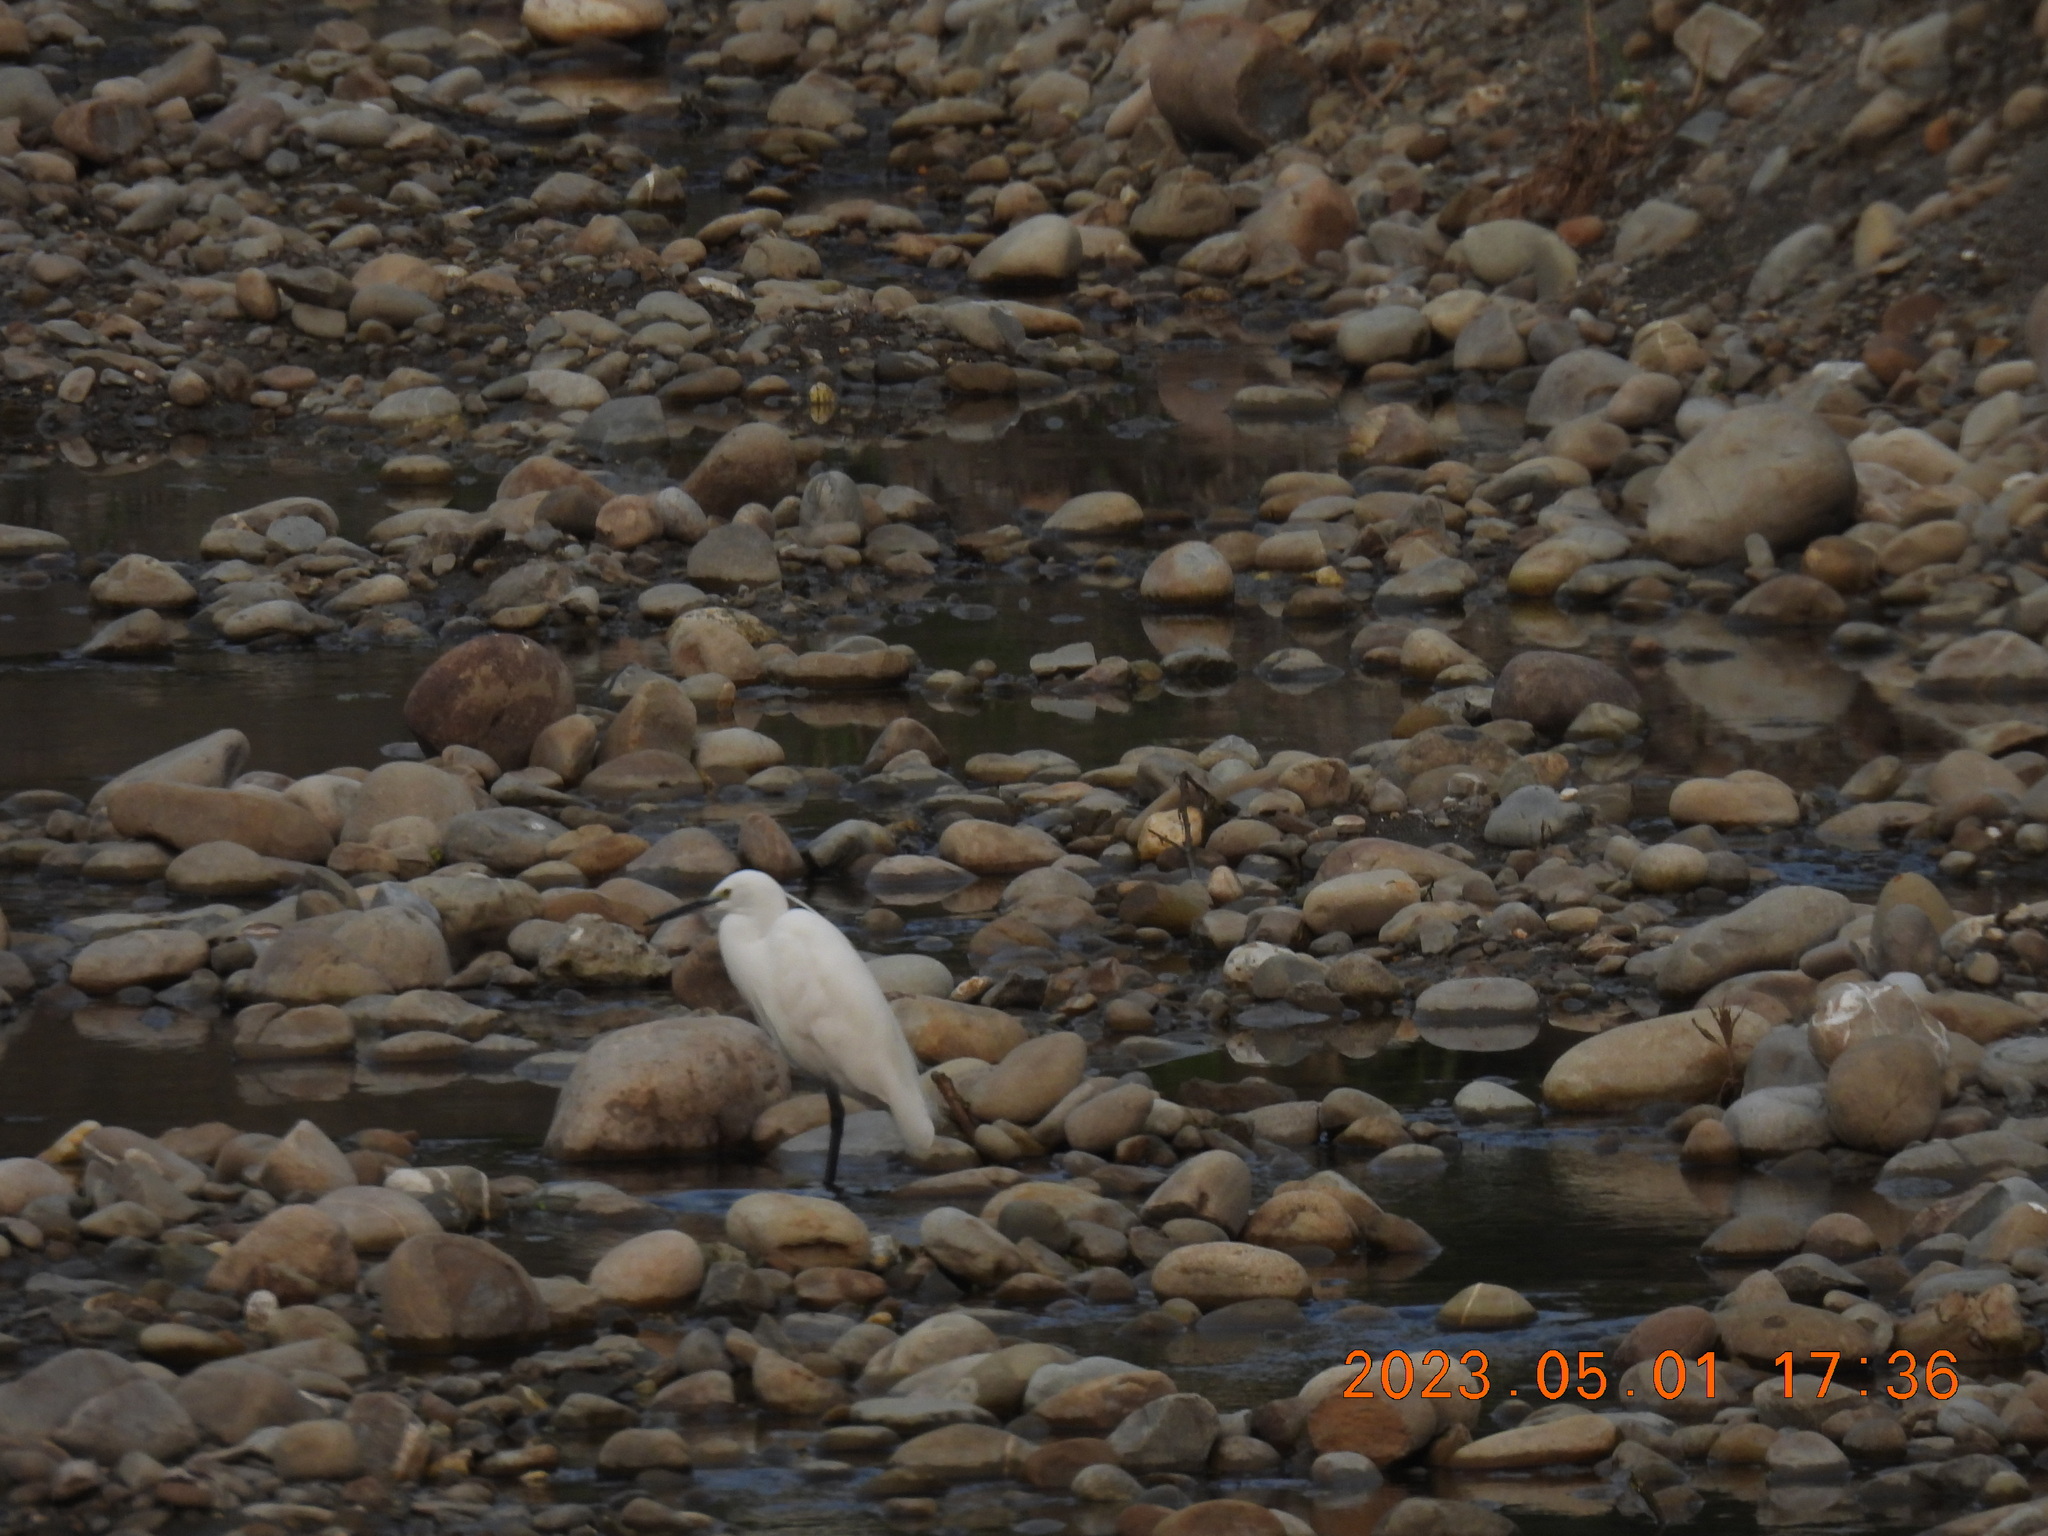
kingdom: Animalia
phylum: Chordata
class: Aves
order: Pelecaniformes
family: Ardeidae
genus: Egretta
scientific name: Egretta garzetta
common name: Little egret
